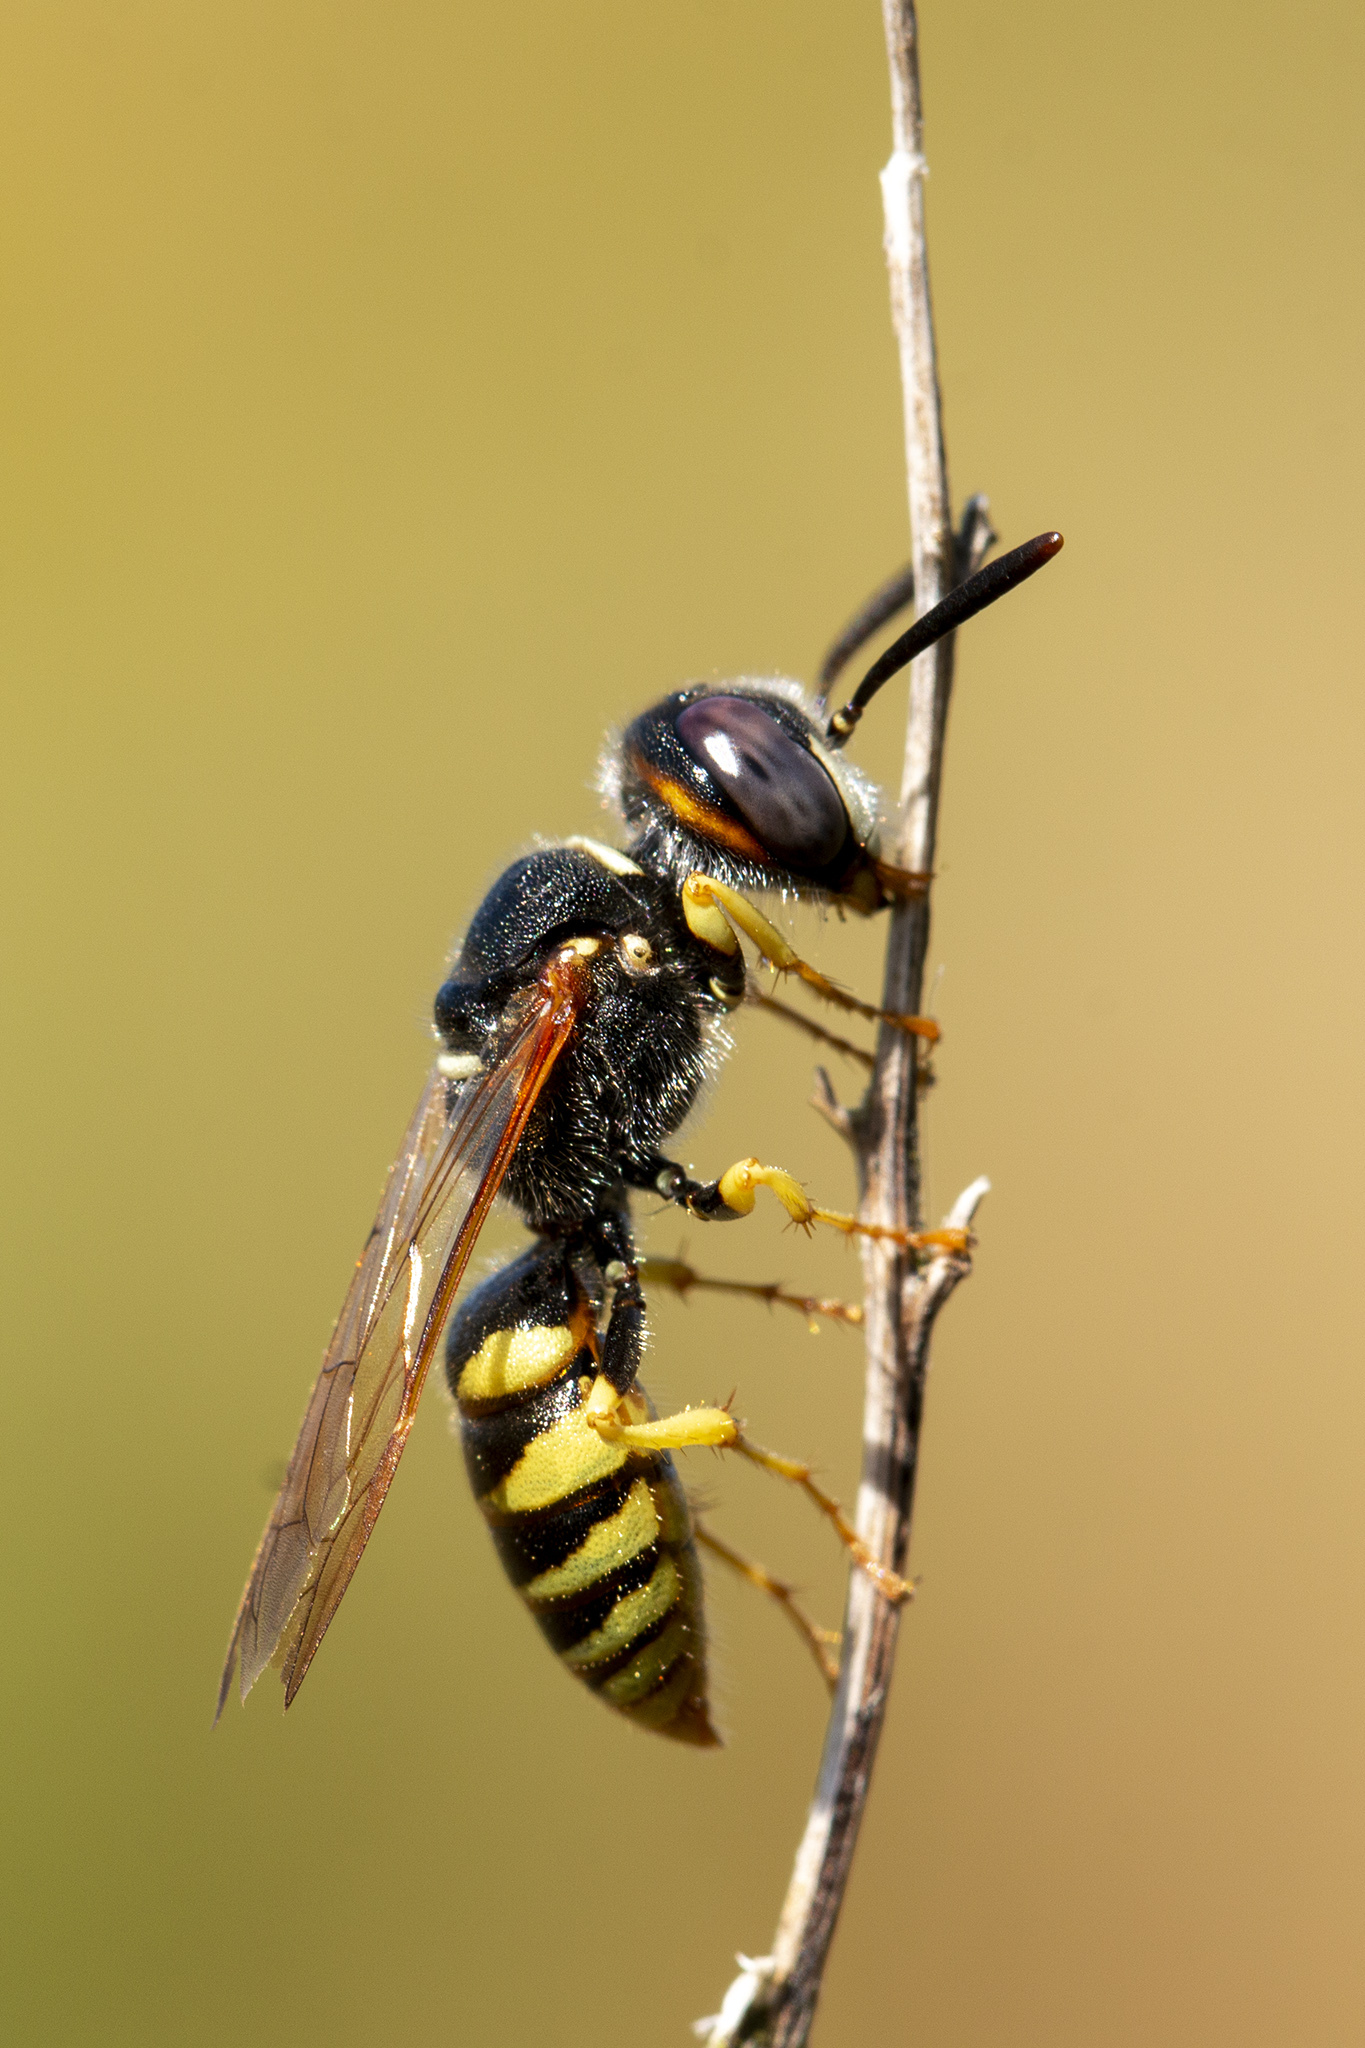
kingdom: Animalia
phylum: Arthropoda
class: Insecta
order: Hymenoptera
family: Crabronidae
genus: Philanthus
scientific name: Philanthus triangulum
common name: Bee wolf
